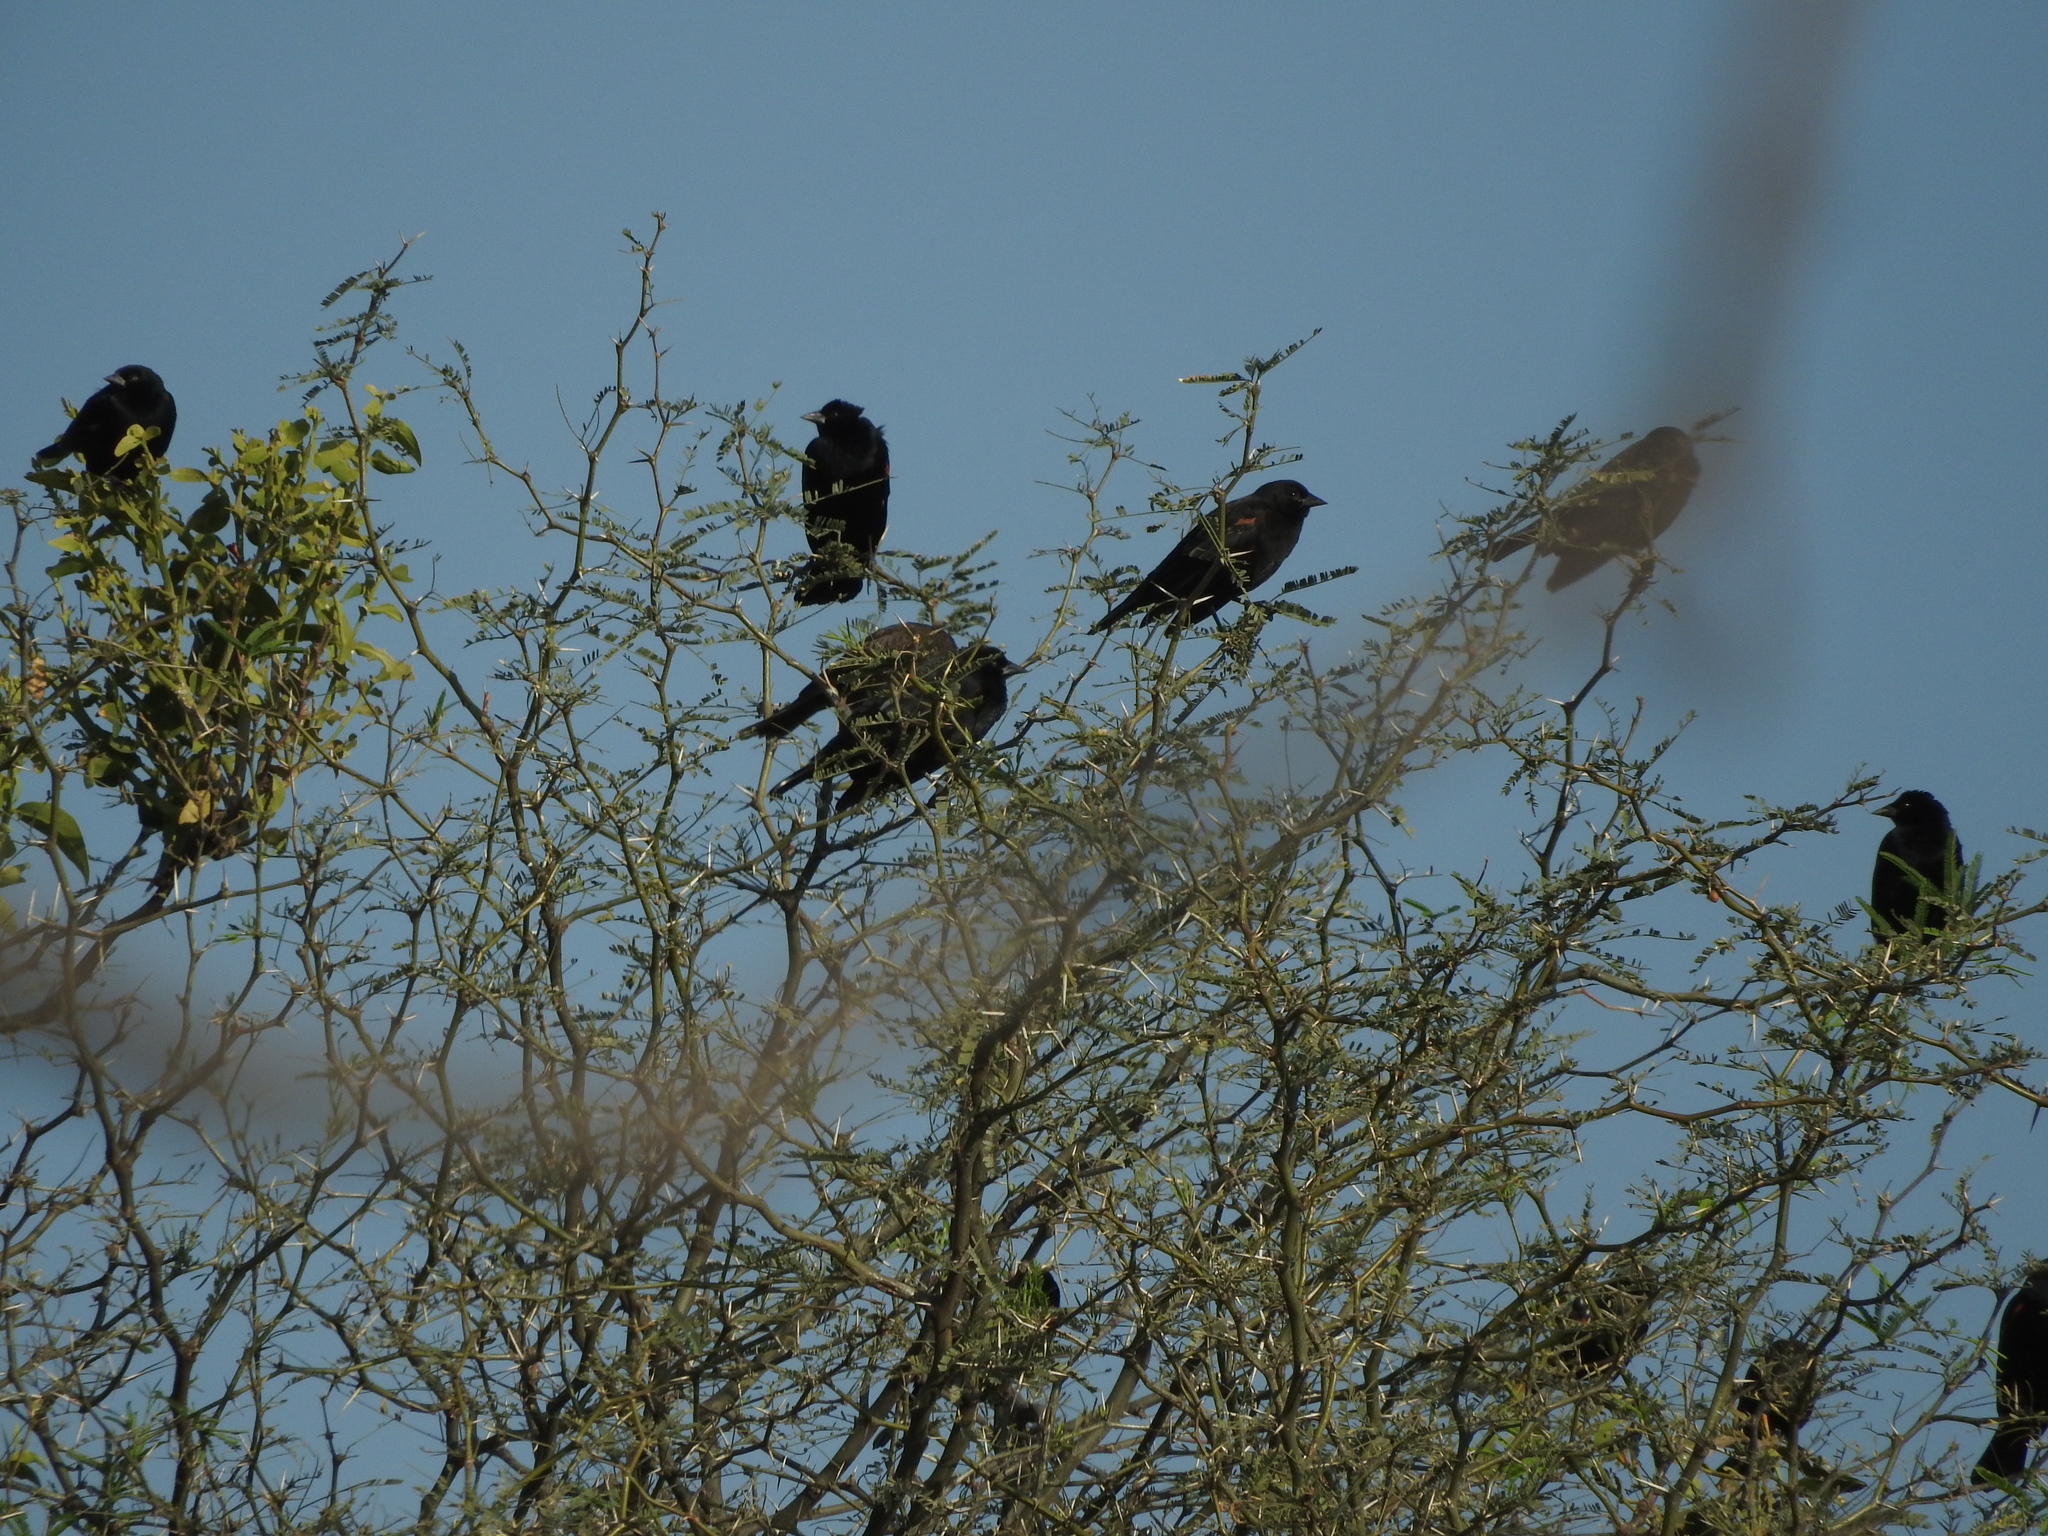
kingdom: Animalia
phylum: Chordata
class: Aves
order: Passeriformes
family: Icteridae
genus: Agelaius
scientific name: Agelaius phoeniceus
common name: Red-winged blackbird
